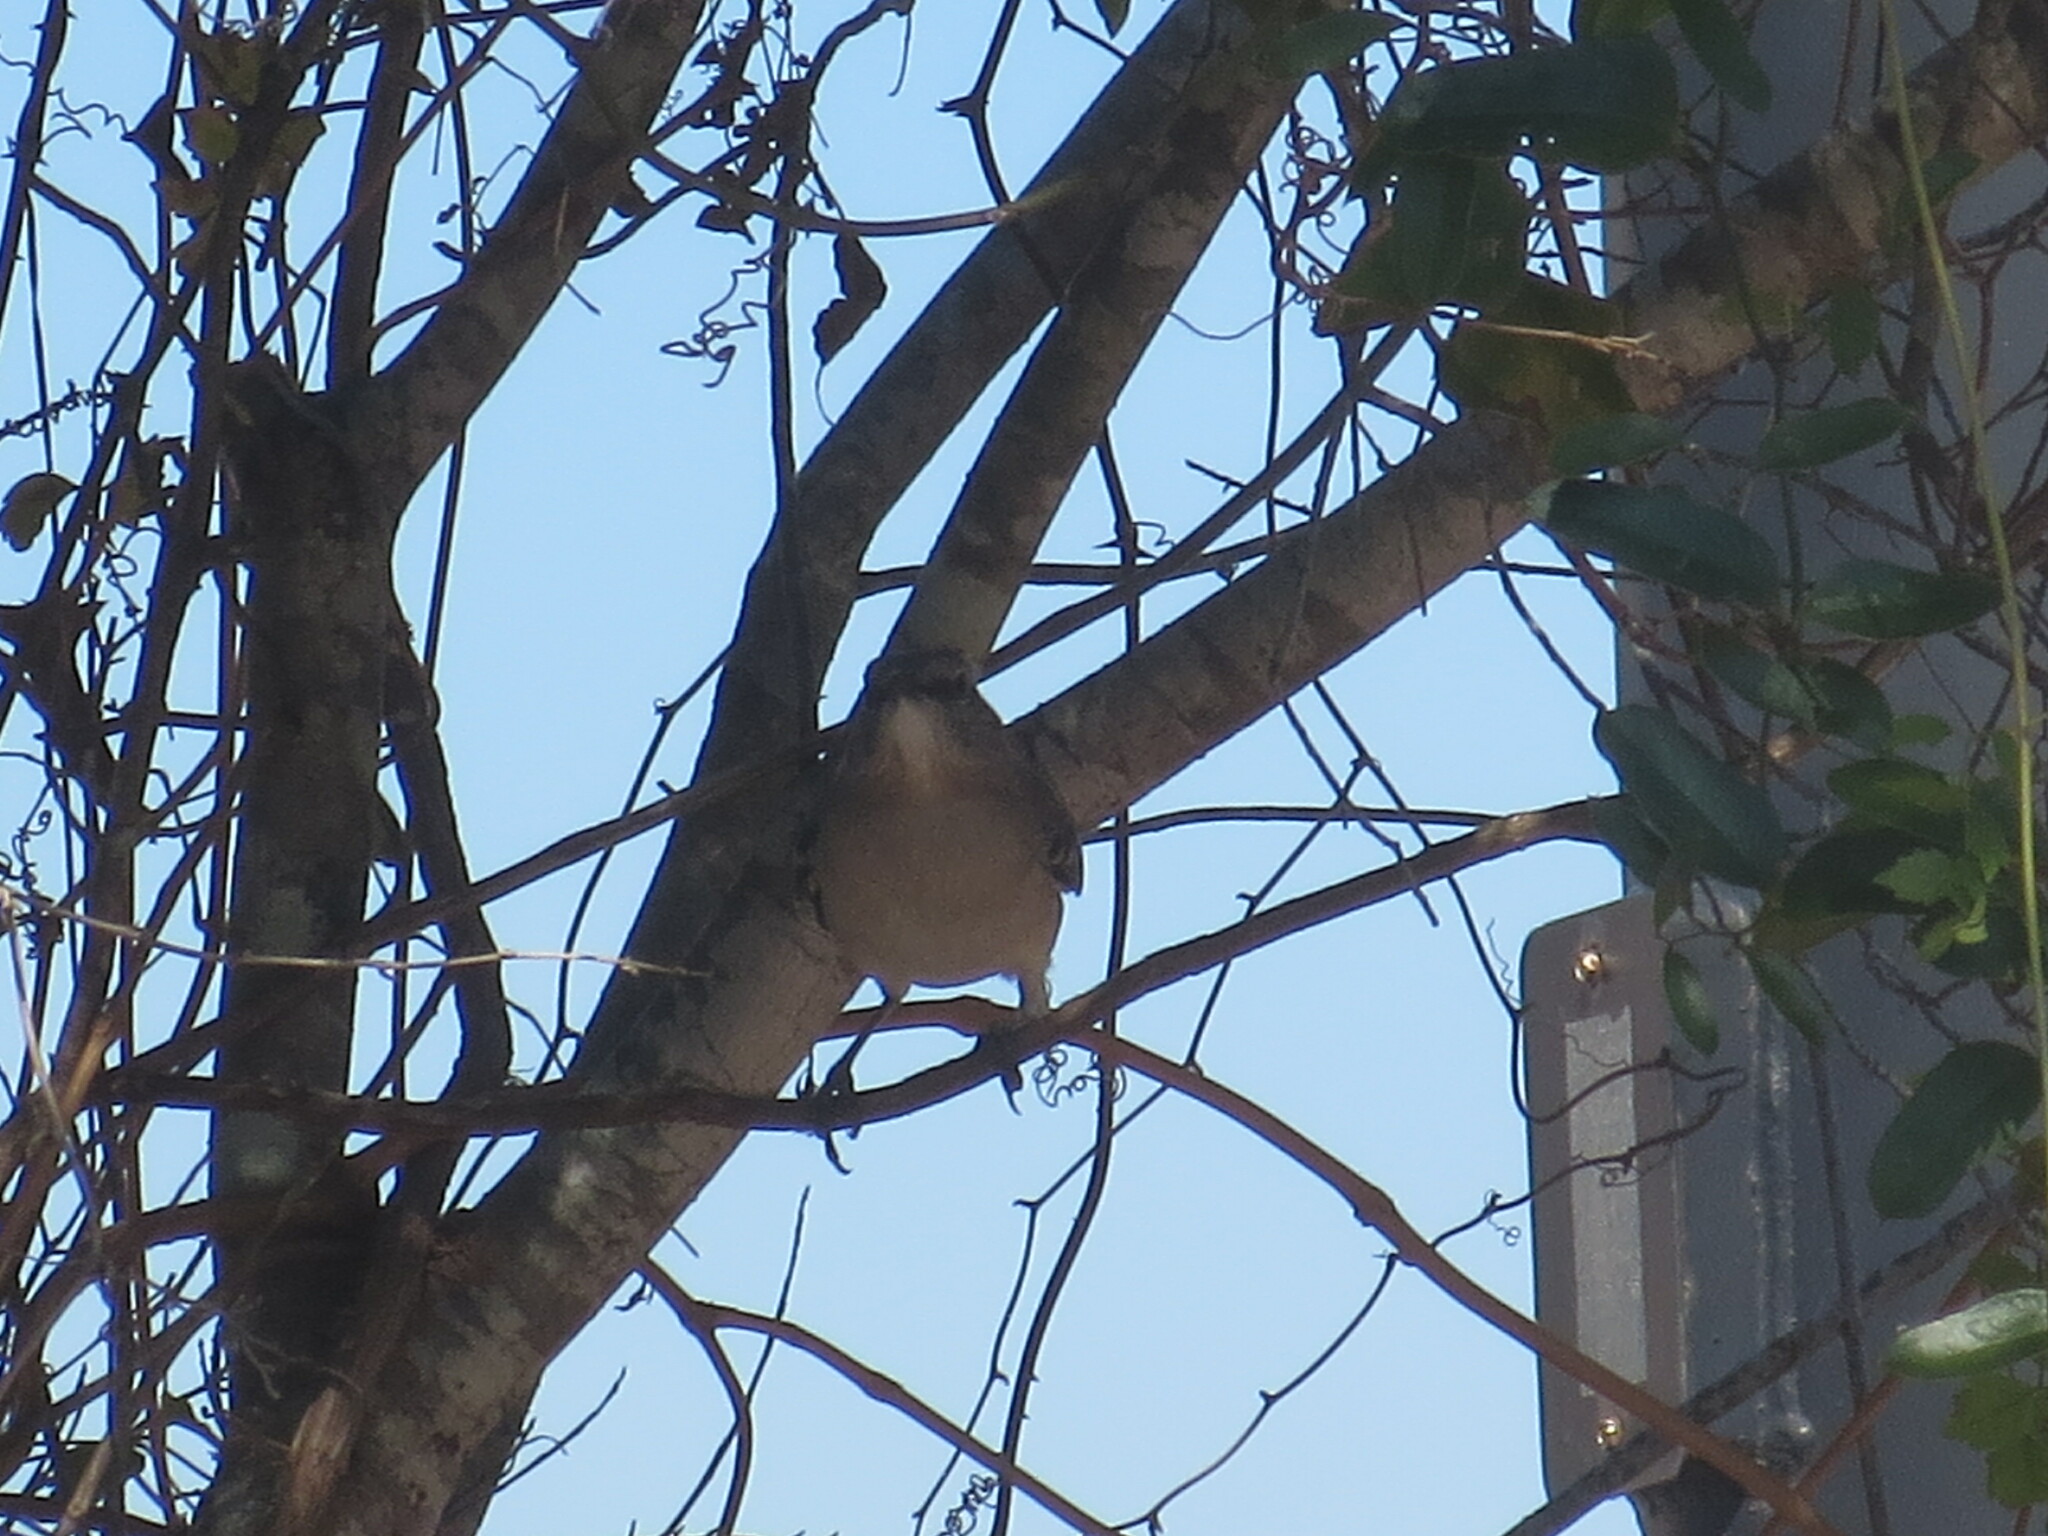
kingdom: Animalia
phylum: Chordata
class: Aves
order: Passeriformes
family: Mimidae
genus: Mimus
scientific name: Mimus polyglottos
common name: Northern mockingbird
